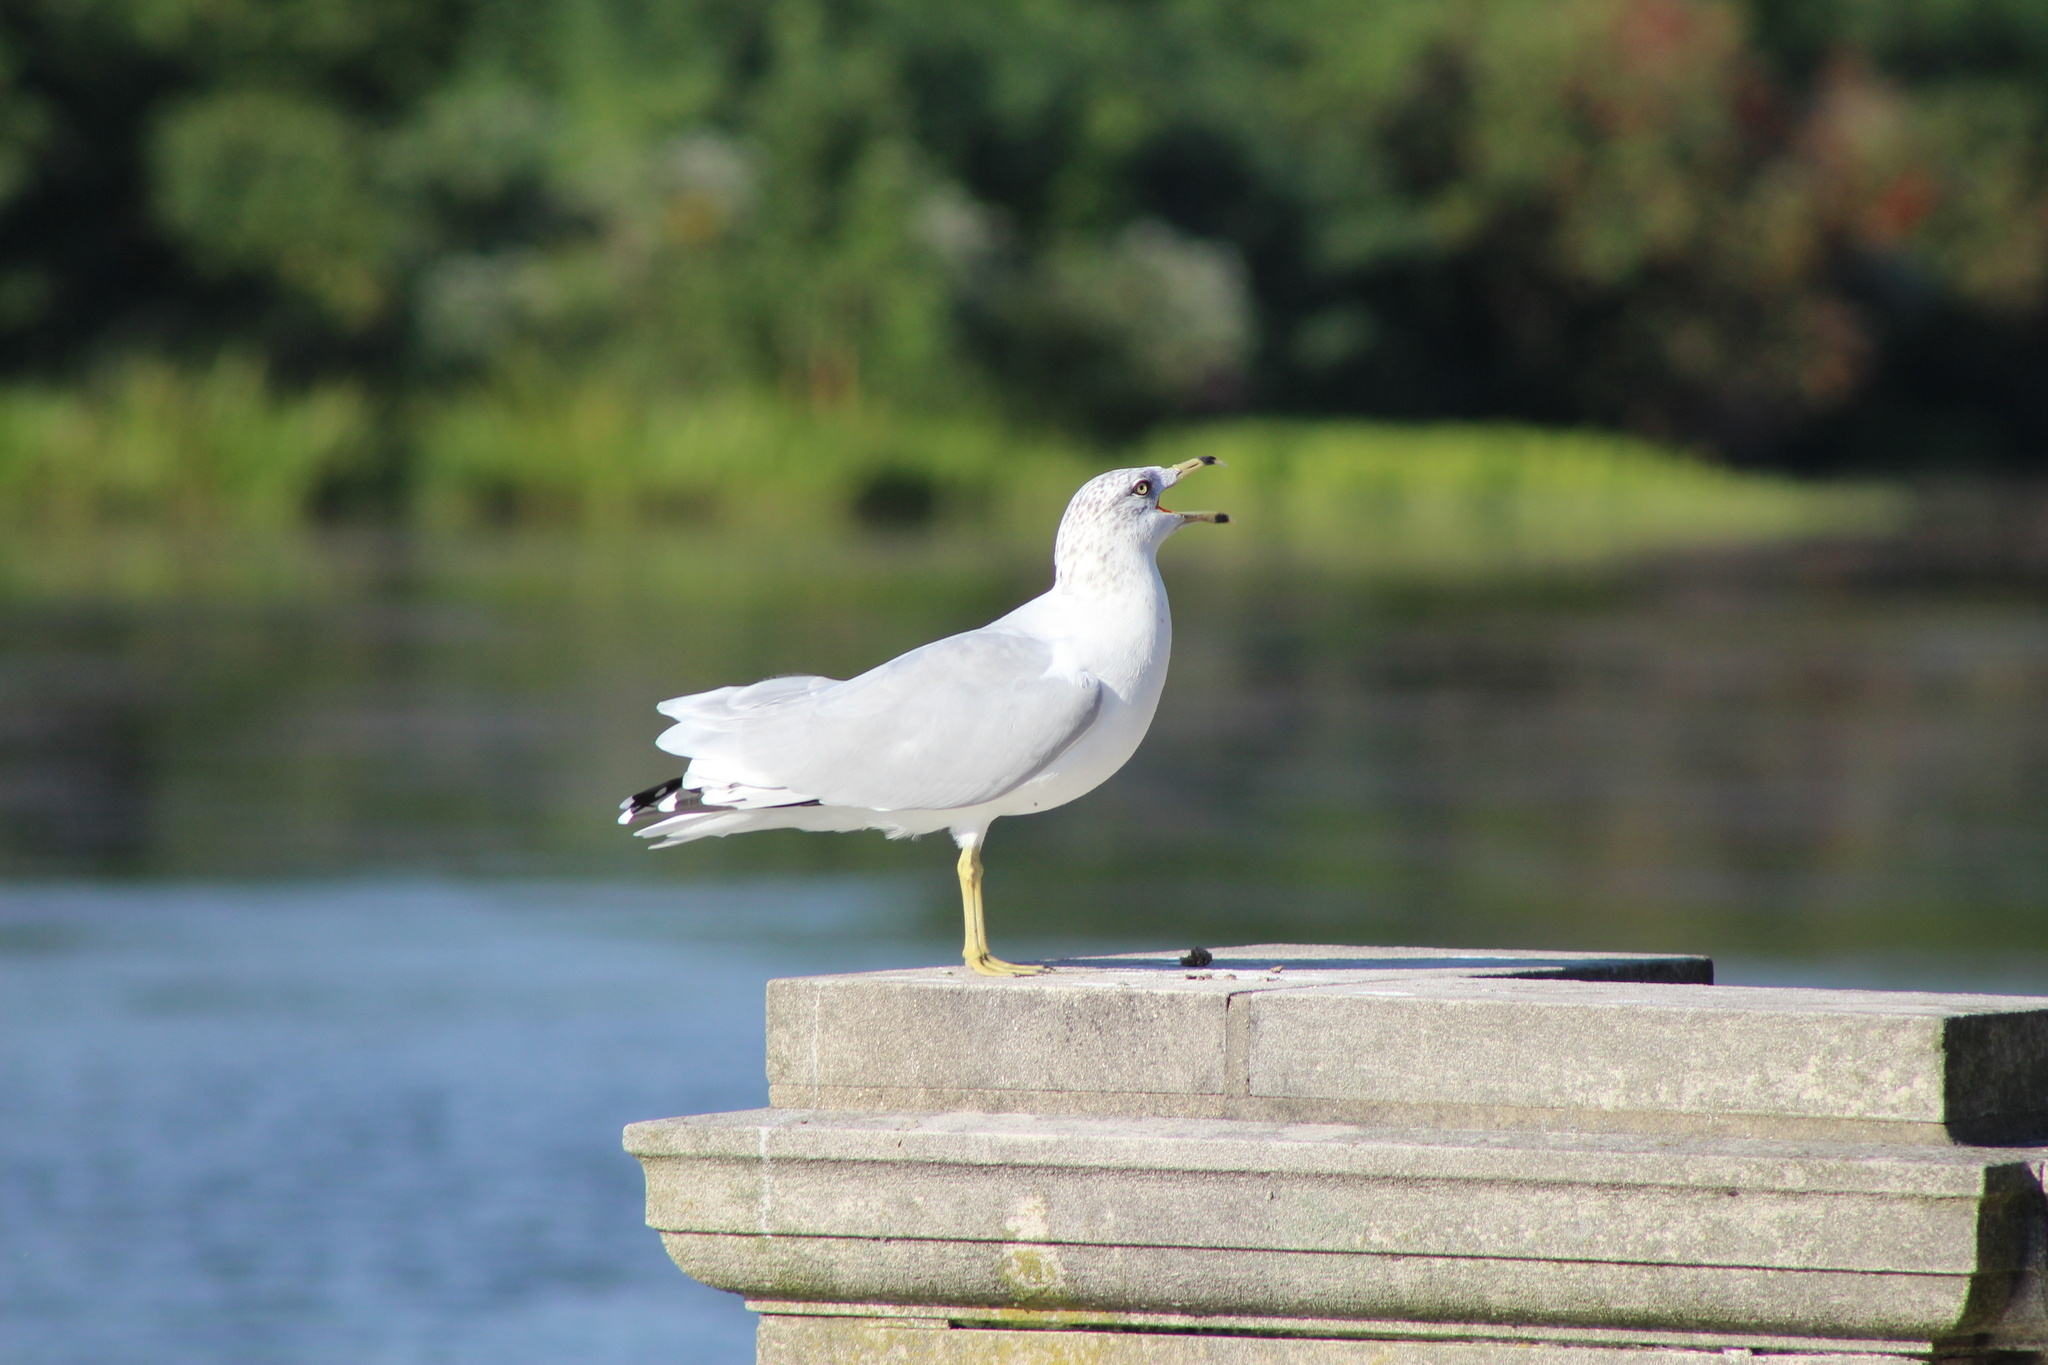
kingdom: Animalia
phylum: Chordata
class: Aves
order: Charadriiformes
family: Laridae
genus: Larus
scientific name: Larus delawarensis
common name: Ring-billed gull
